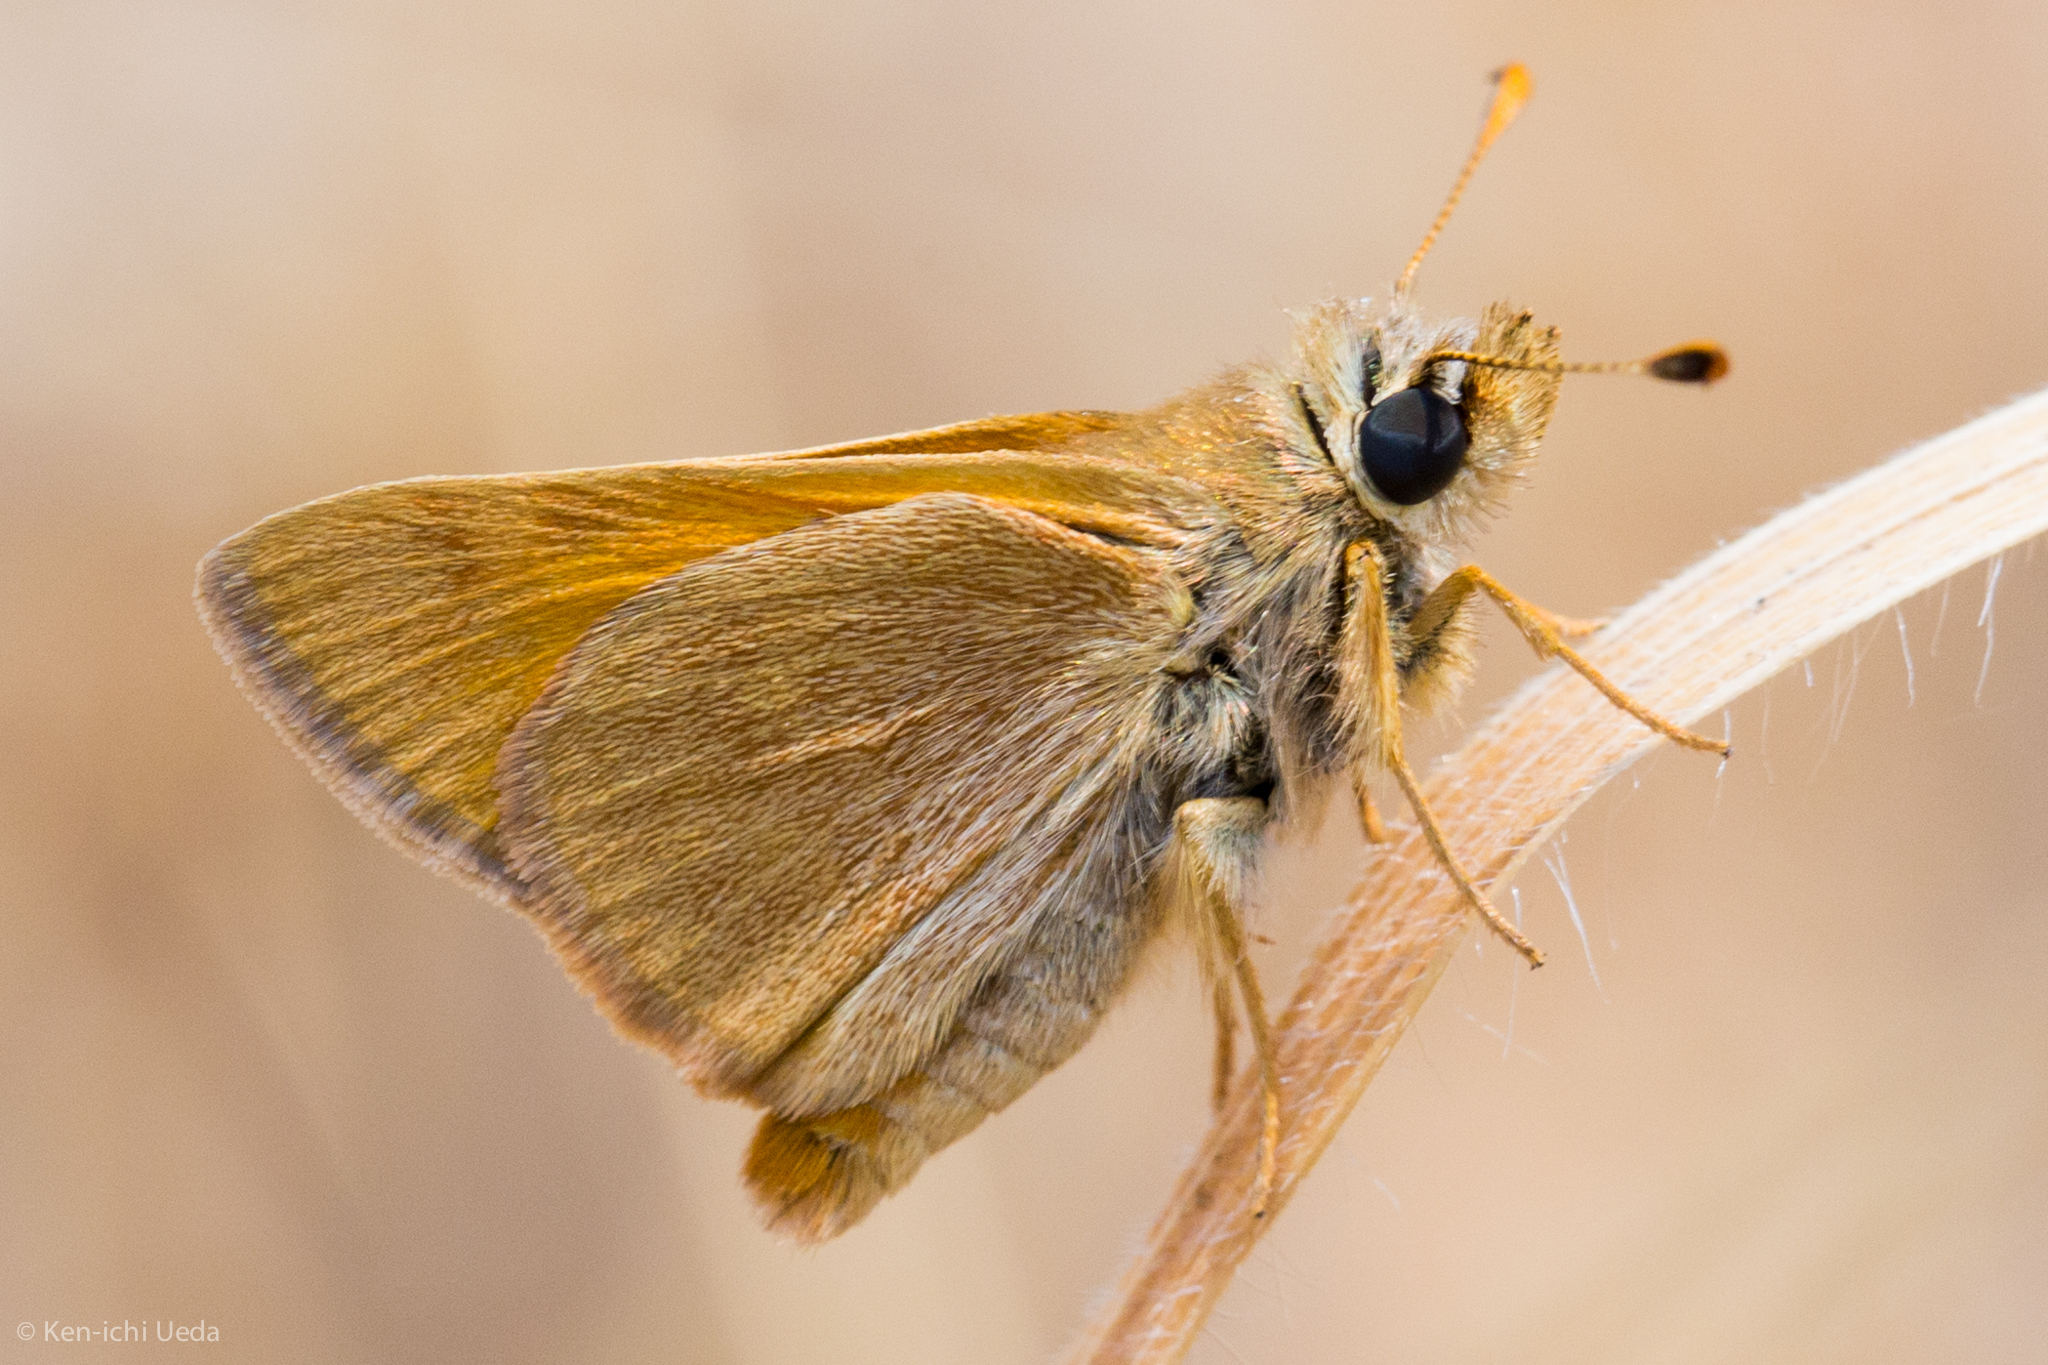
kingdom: Animalia
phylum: Arthropoda
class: Insecta
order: Lepidoptera
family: Hesperiidae
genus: Ochlodes
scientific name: Ochlodes sylvanoides
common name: Woodland skipper
